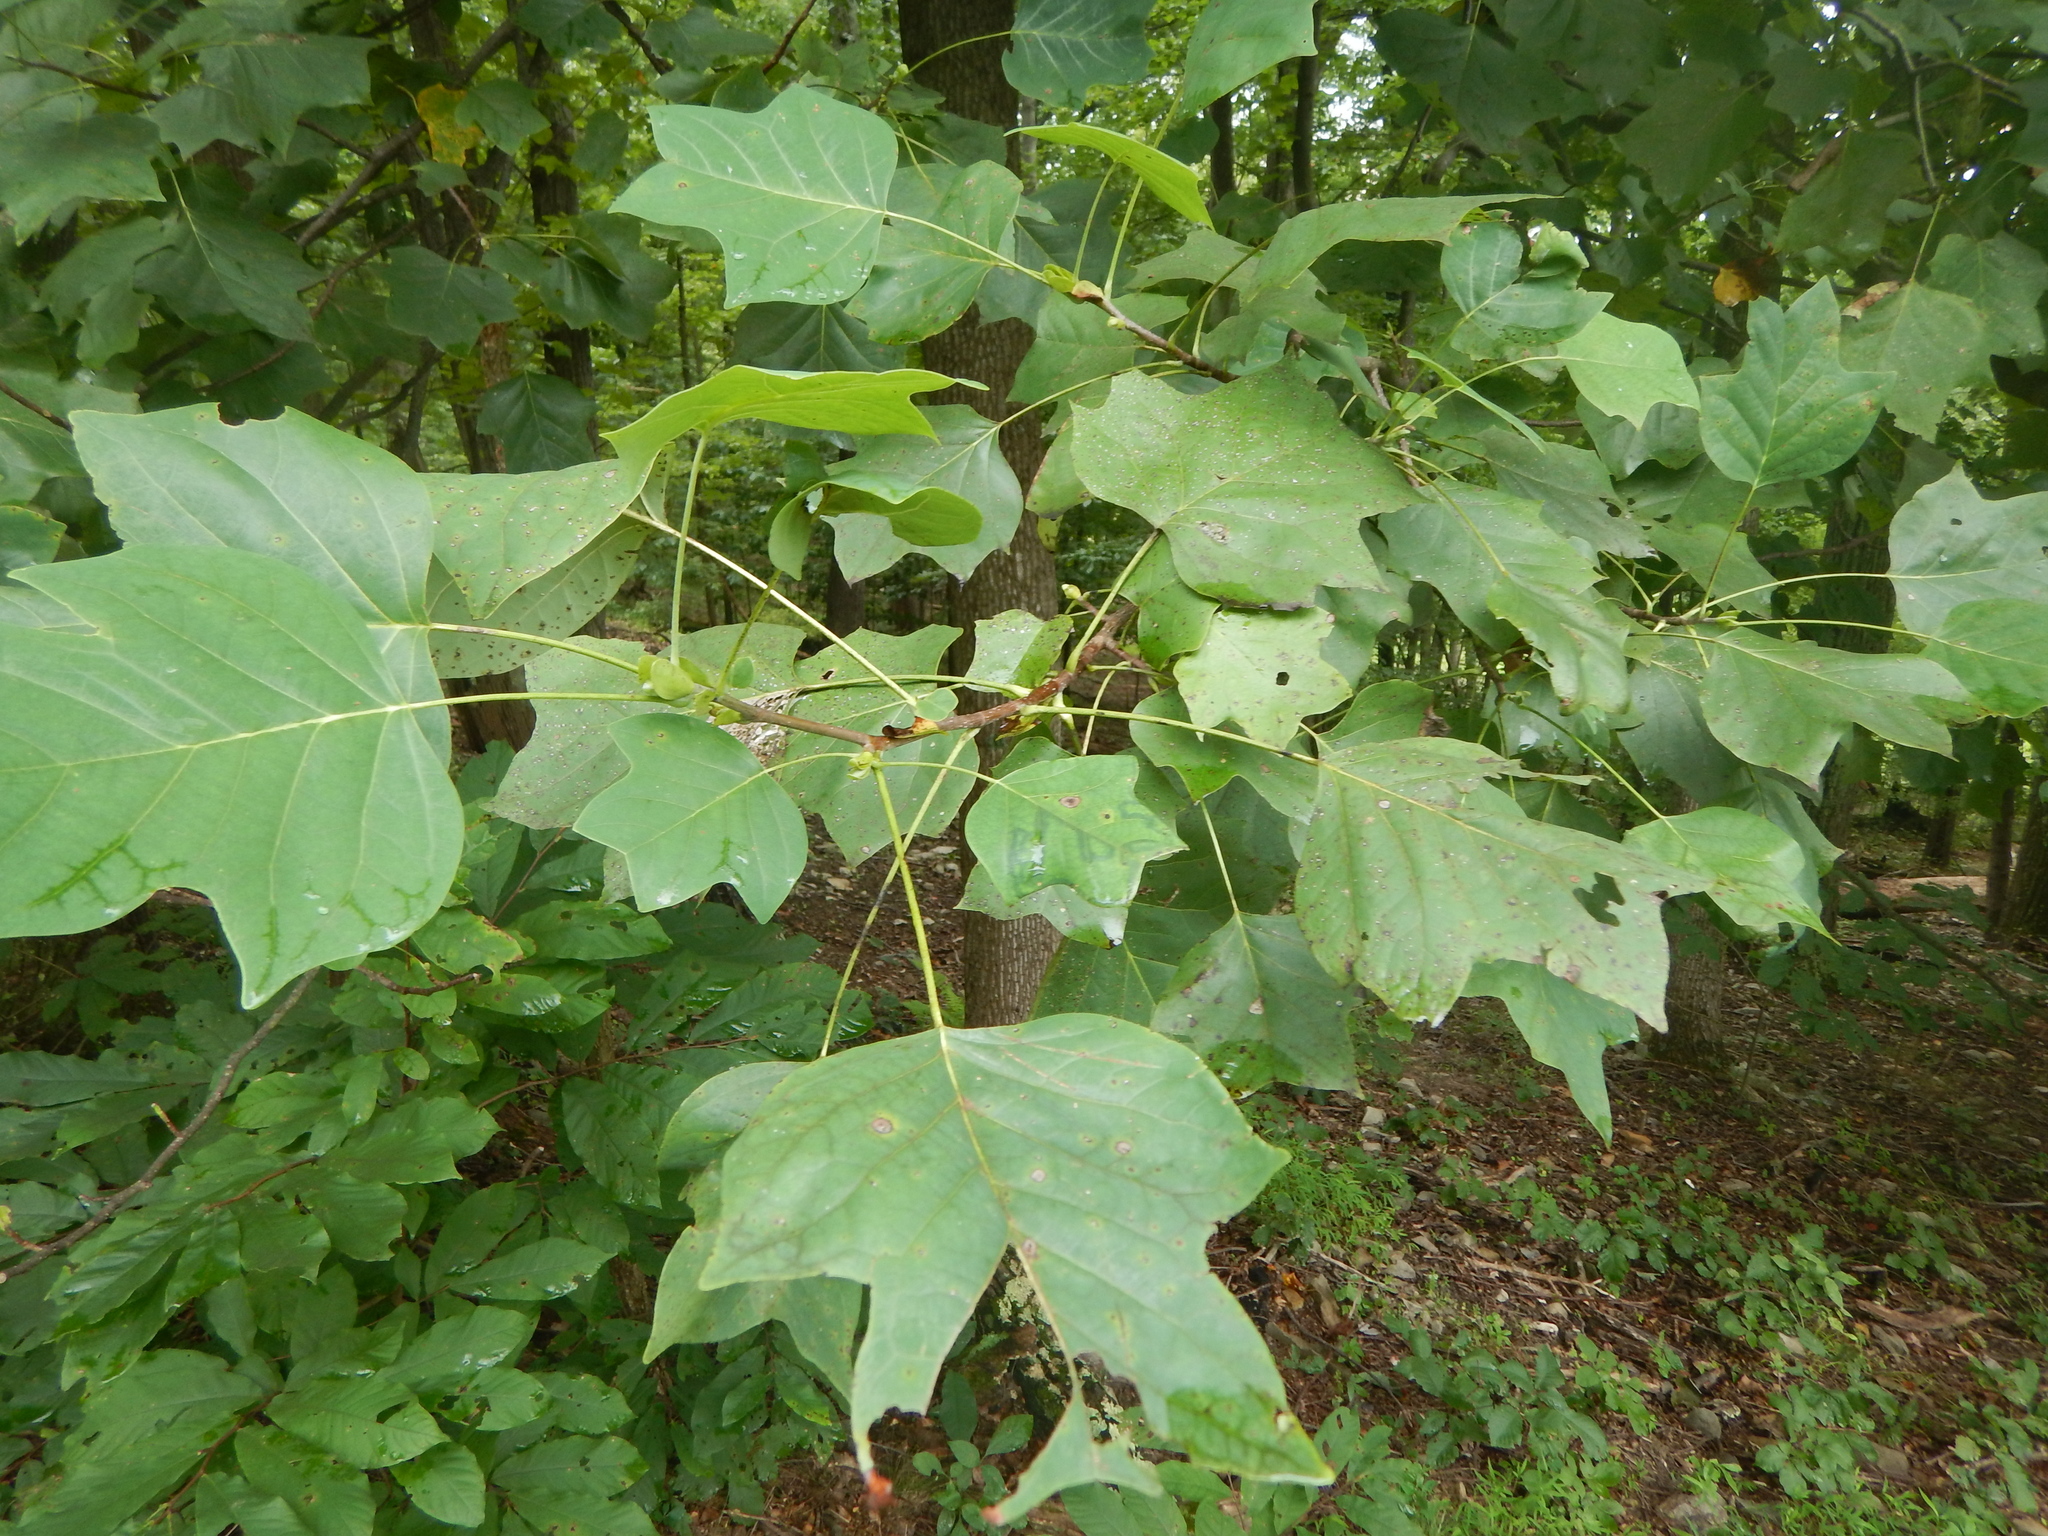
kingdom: Plantae
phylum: Tracheophyta
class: Magnoliopsida
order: Magnoliales
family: Magnoliaceae
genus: Liriodendron
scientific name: Liriodendron tulipifera
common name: Tulip tree
